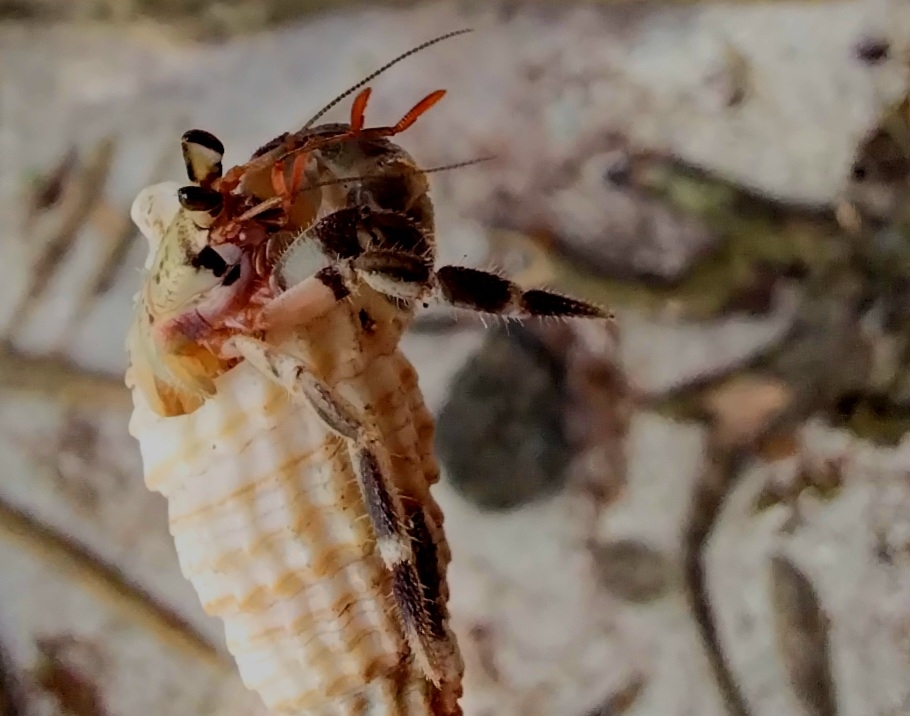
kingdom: Animalia
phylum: Arthropoda
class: Malacostraca
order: Decapoda
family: Coenobitidae
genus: Coenobita
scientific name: Coenobita rugosus
